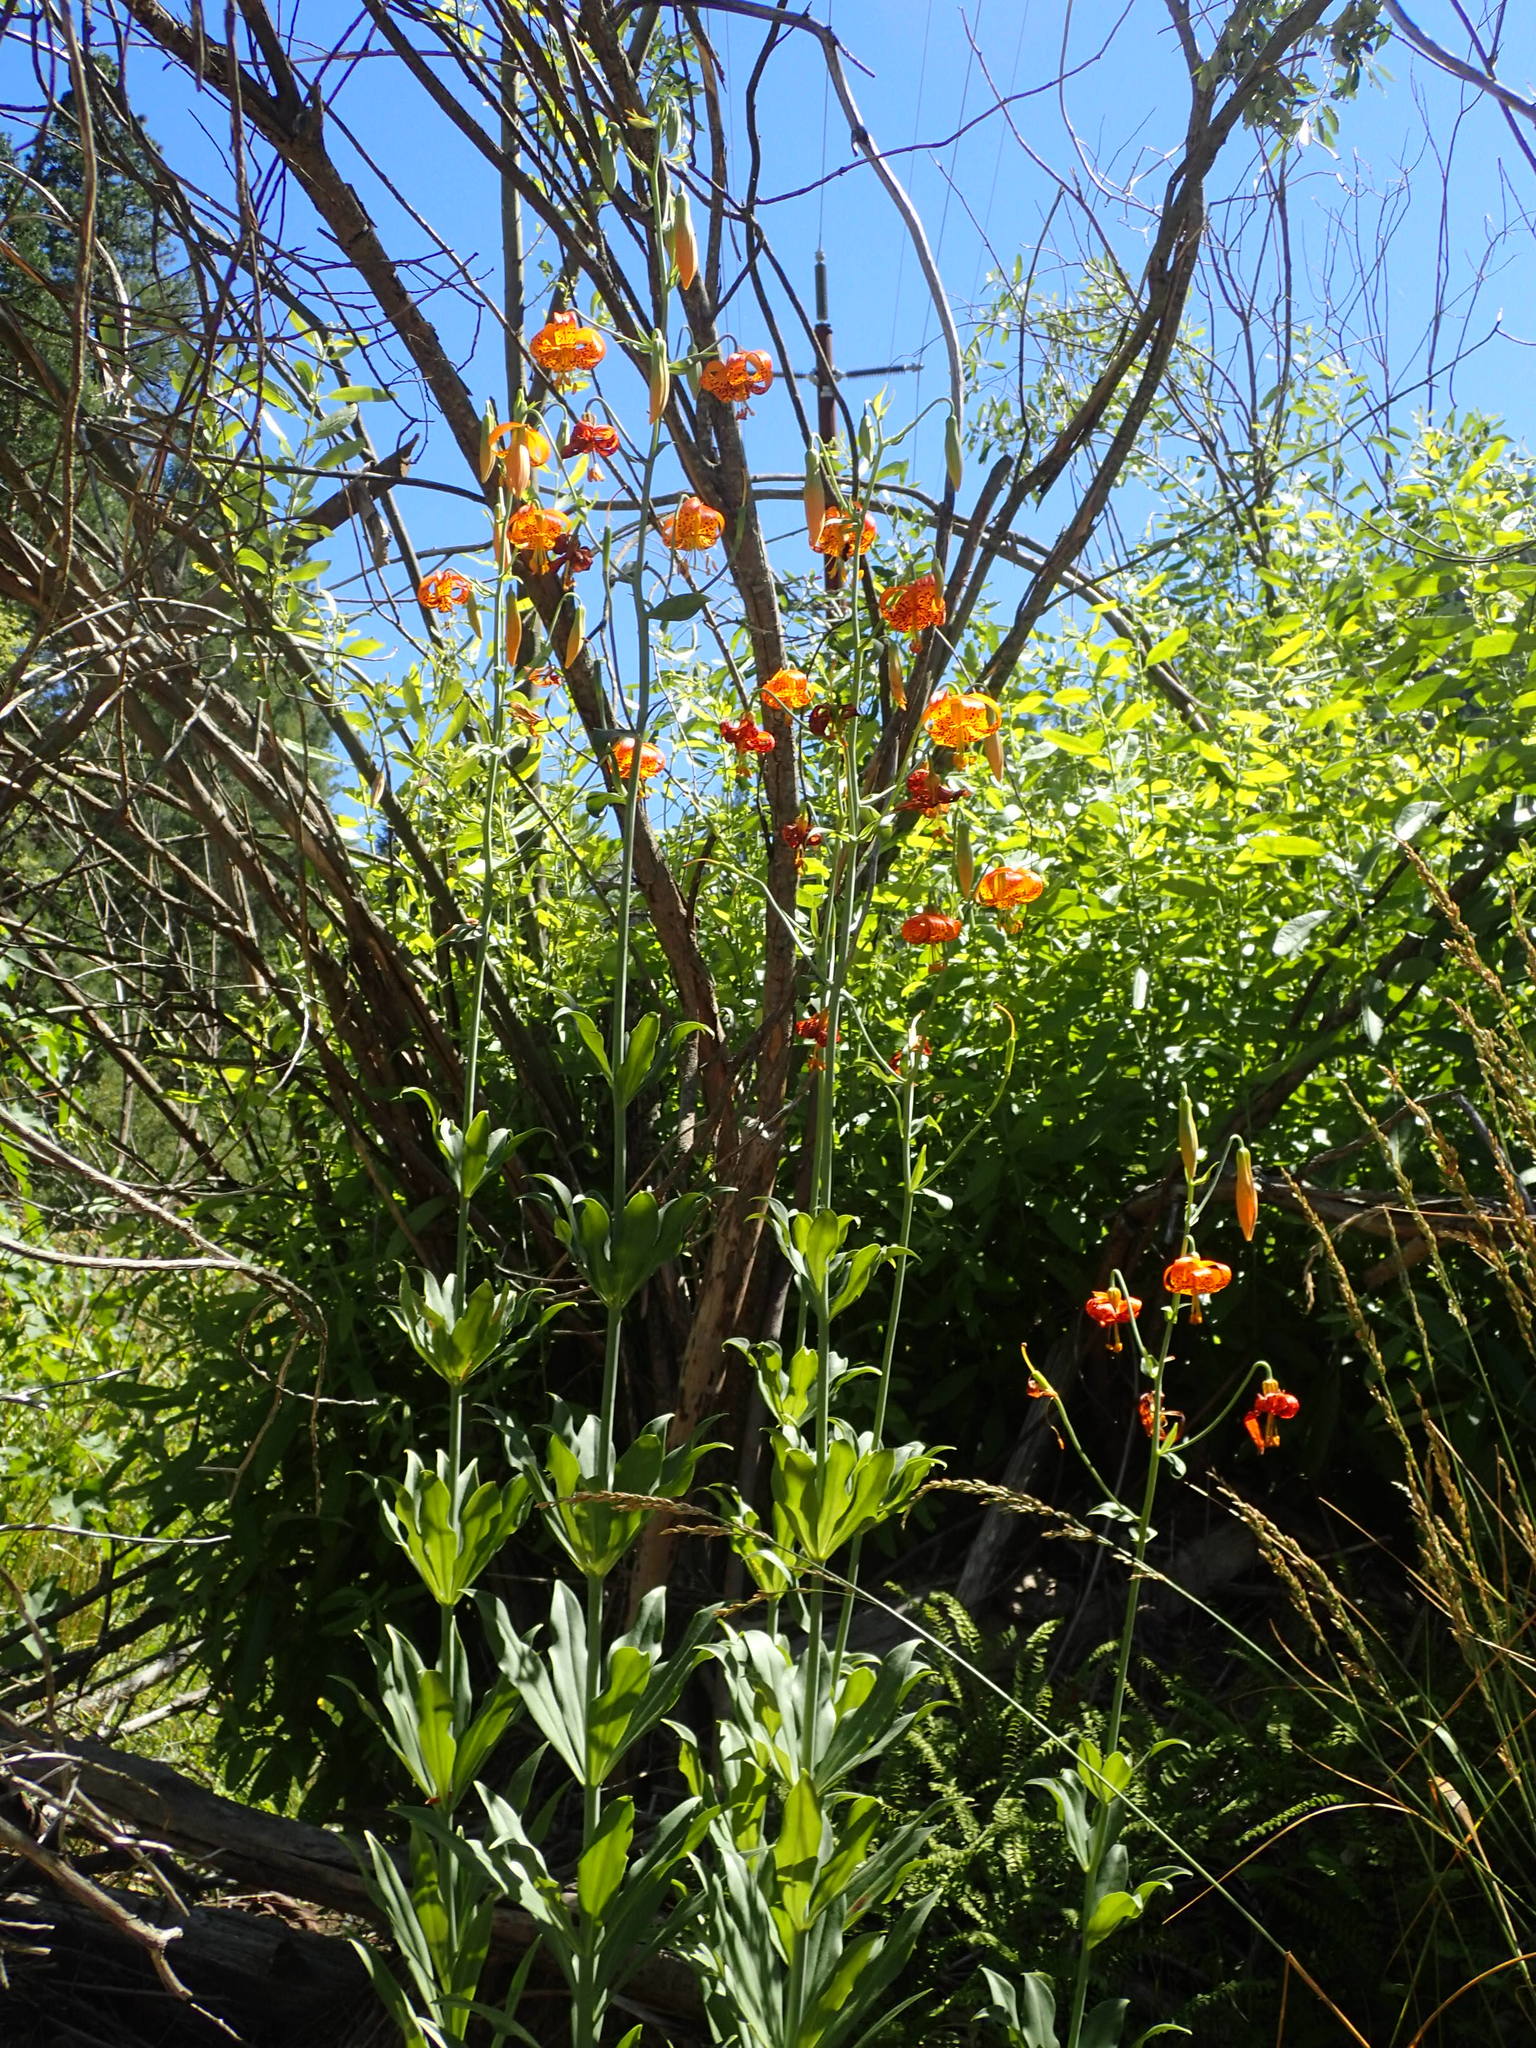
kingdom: Plantae
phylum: Tracheophyta
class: Liliopsida
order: Liliales
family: Liliaceae
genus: Lilium
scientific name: Lilium pardalinum
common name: Panther lily
